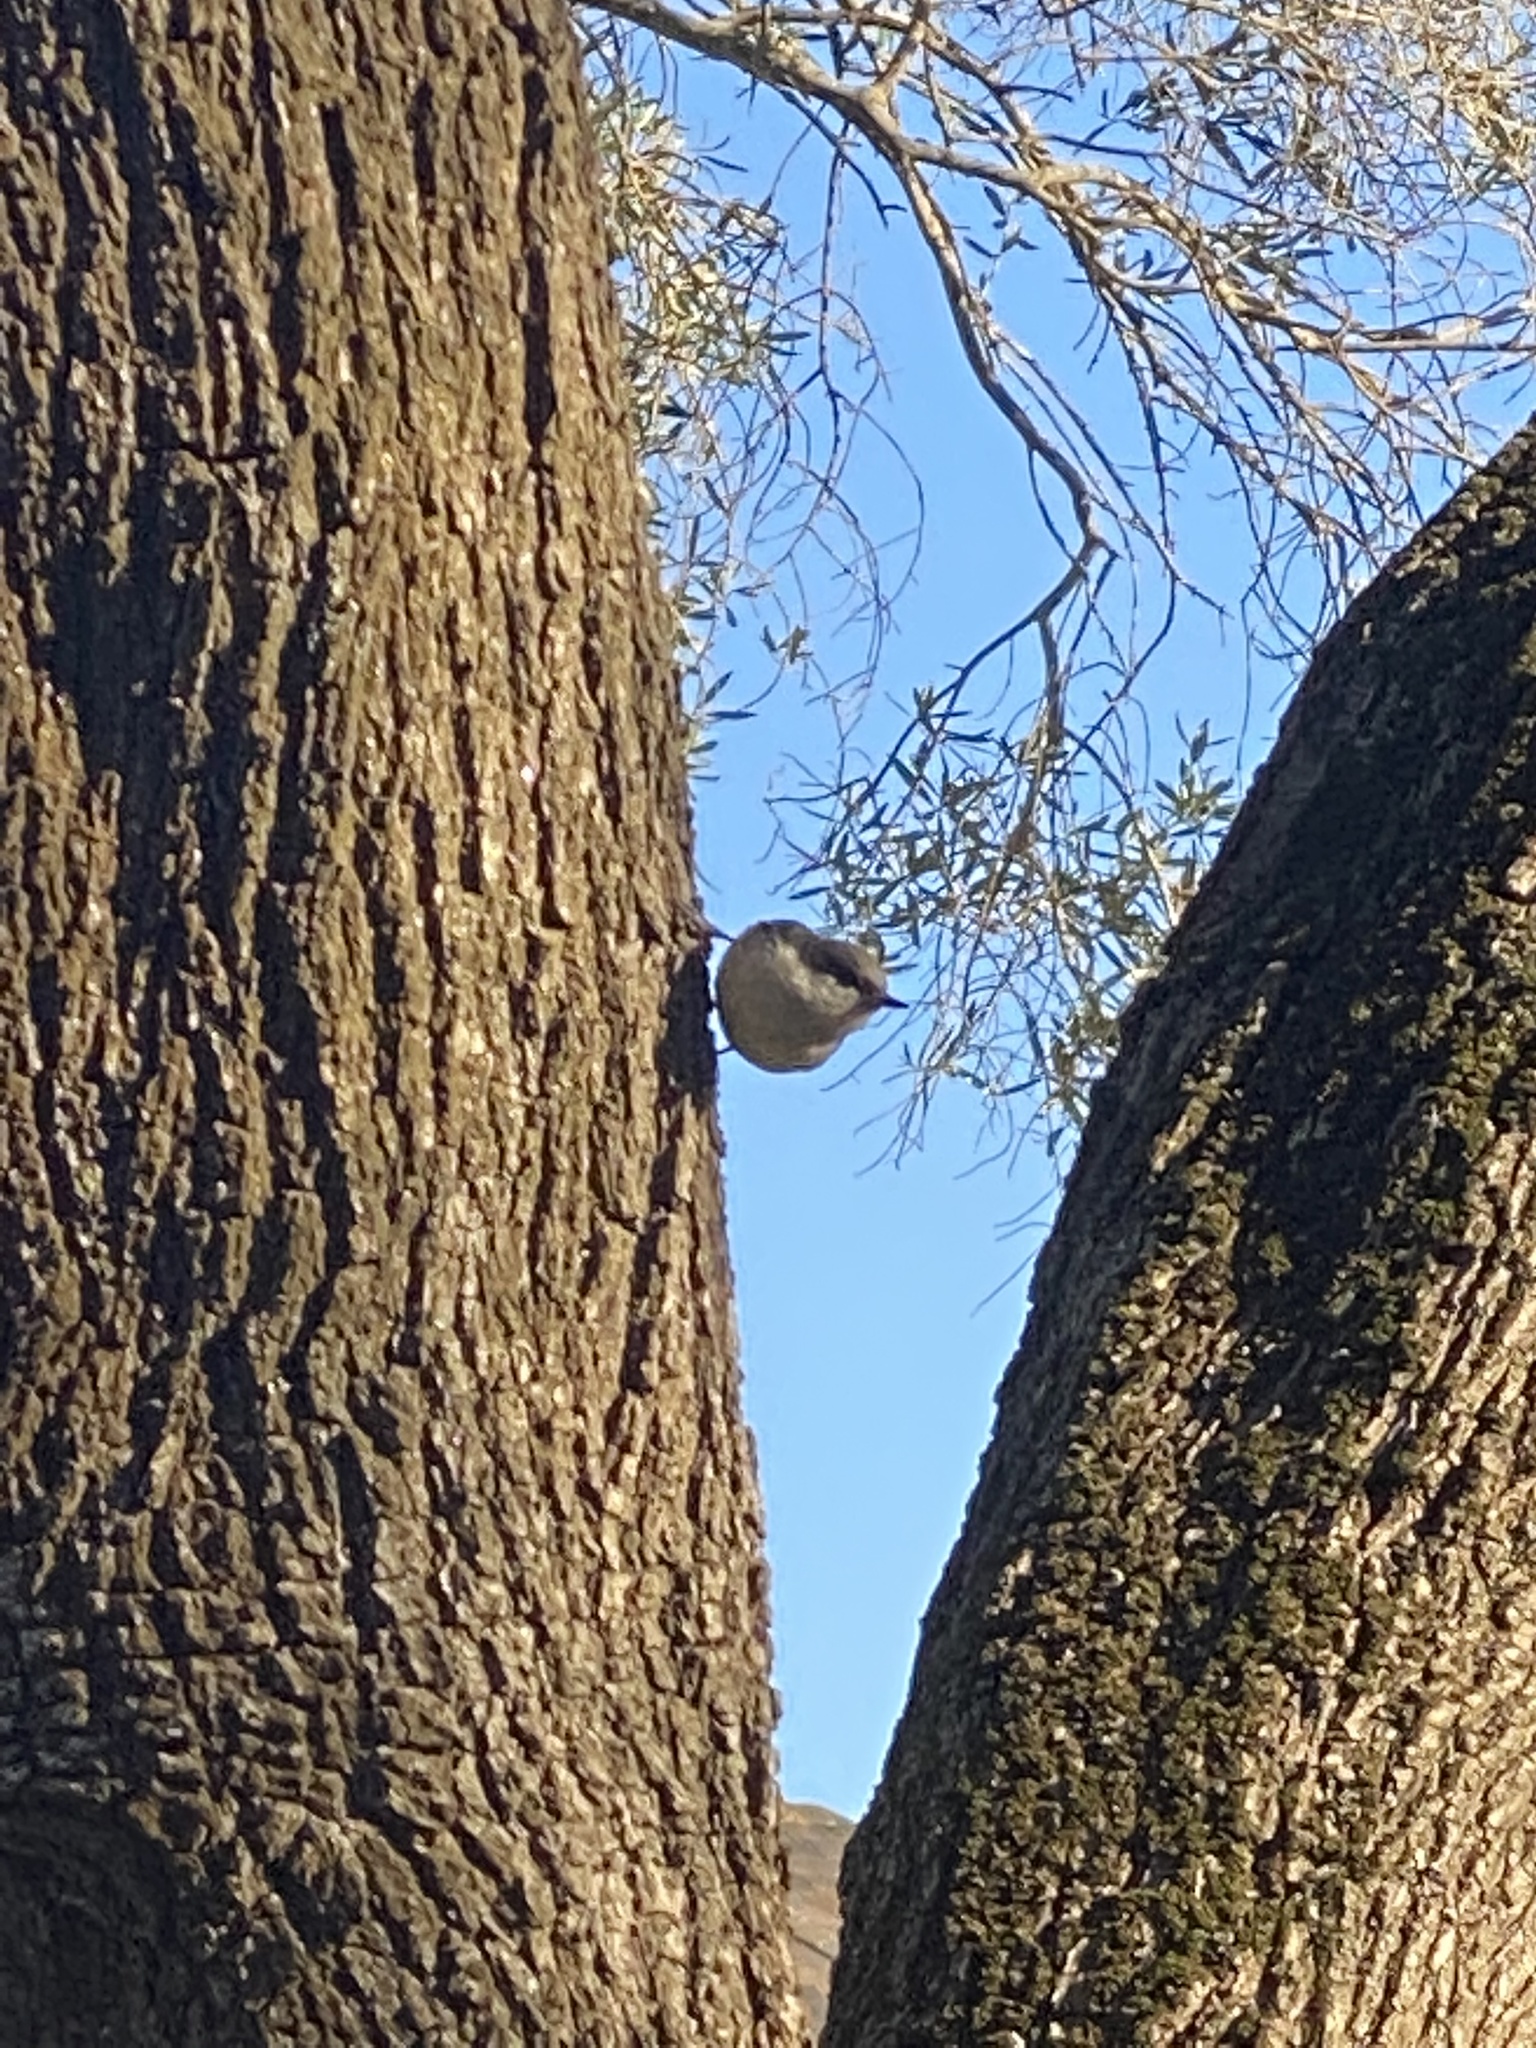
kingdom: Animalia
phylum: Chordata
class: Aves
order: Passeriformes
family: Sittidae
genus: Sitta
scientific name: Sitta pygmaea
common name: Pygmy nuthatch
